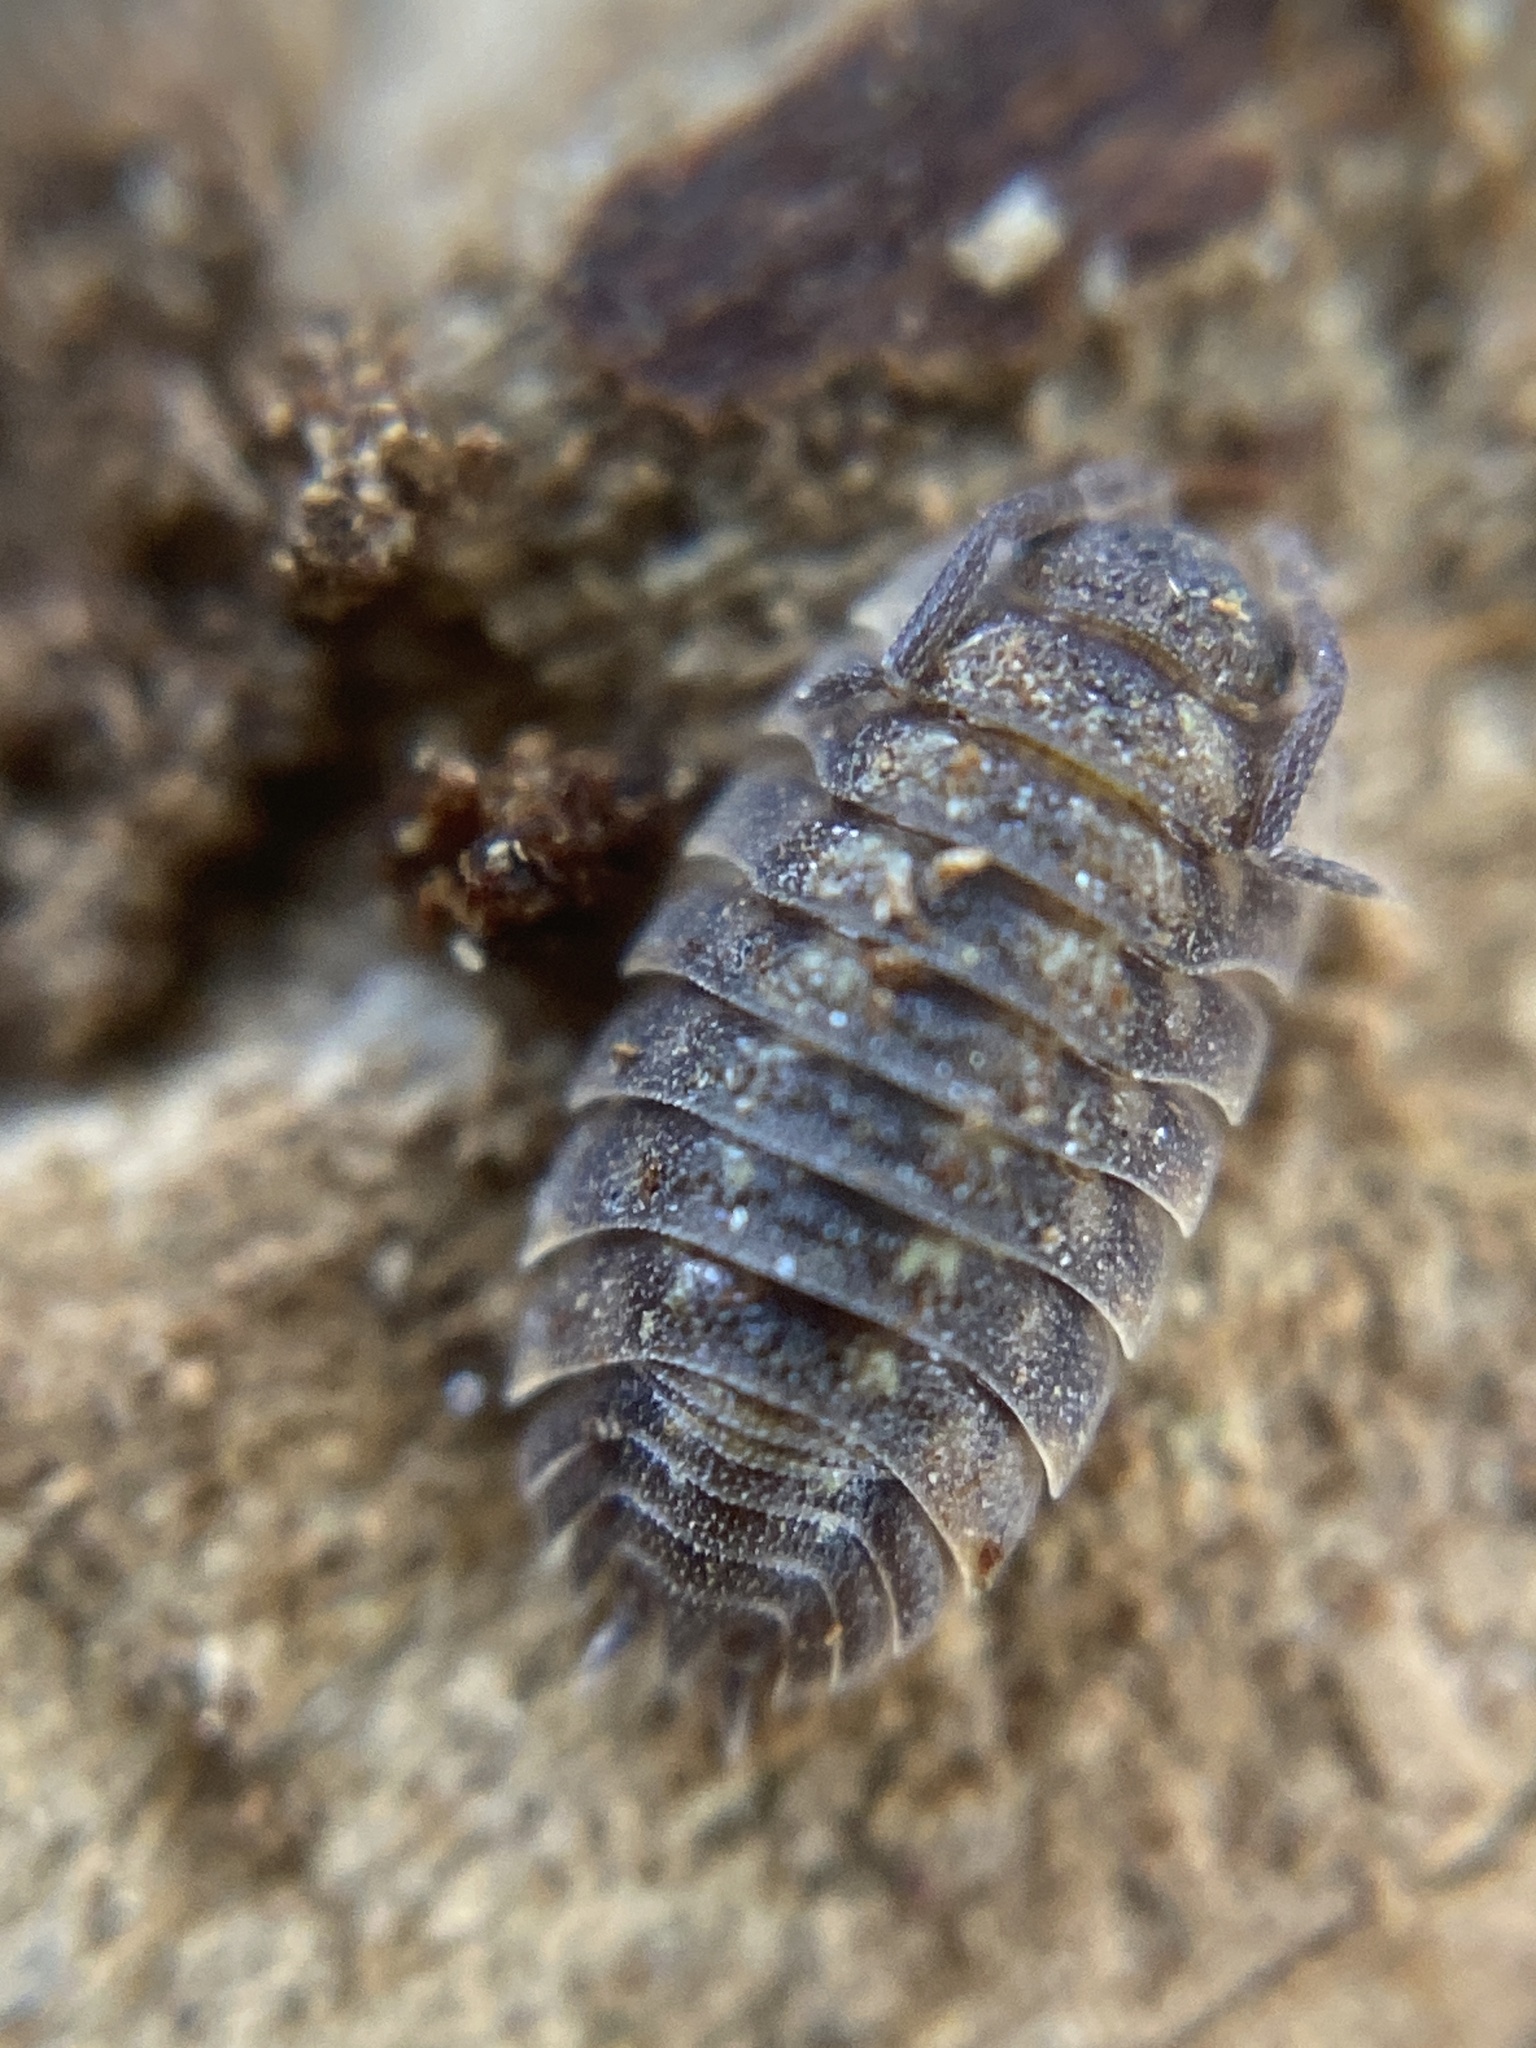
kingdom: Animalia
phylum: Arthropoda
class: Malacostraca
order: Isopoda
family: Oniscidae
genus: Oniscus
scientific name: Oniscus asellus
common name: Common shiny woodlouse
